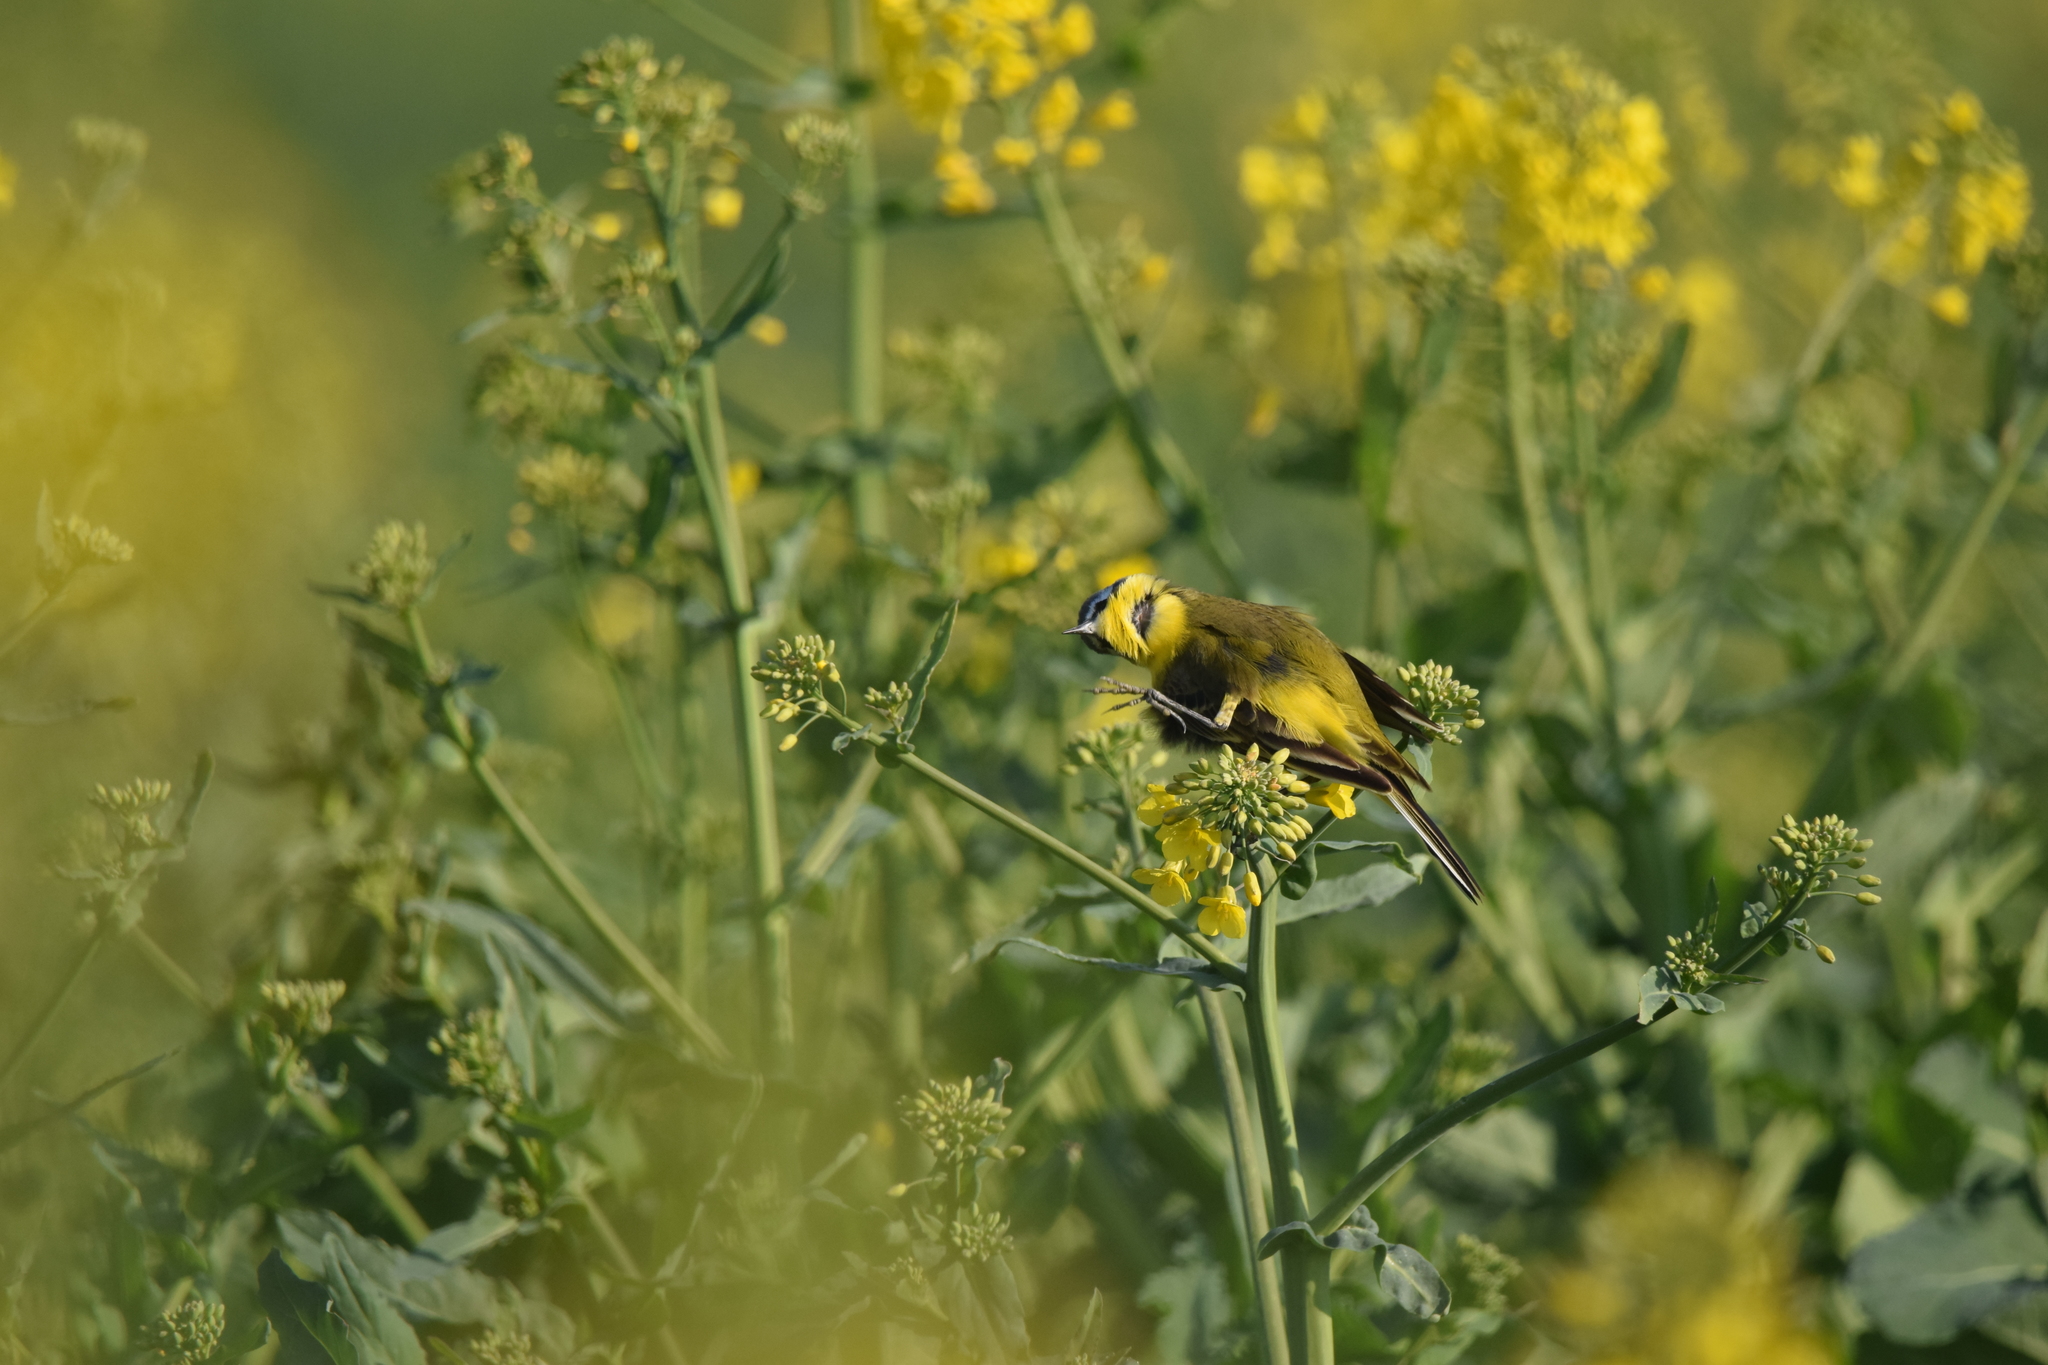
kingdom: Animalia
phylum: Chordata
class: Aves
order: Passeriformes
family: Motacillidae
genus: Motacilla
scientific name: Motacilla flava
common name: Western yellow wagtail
